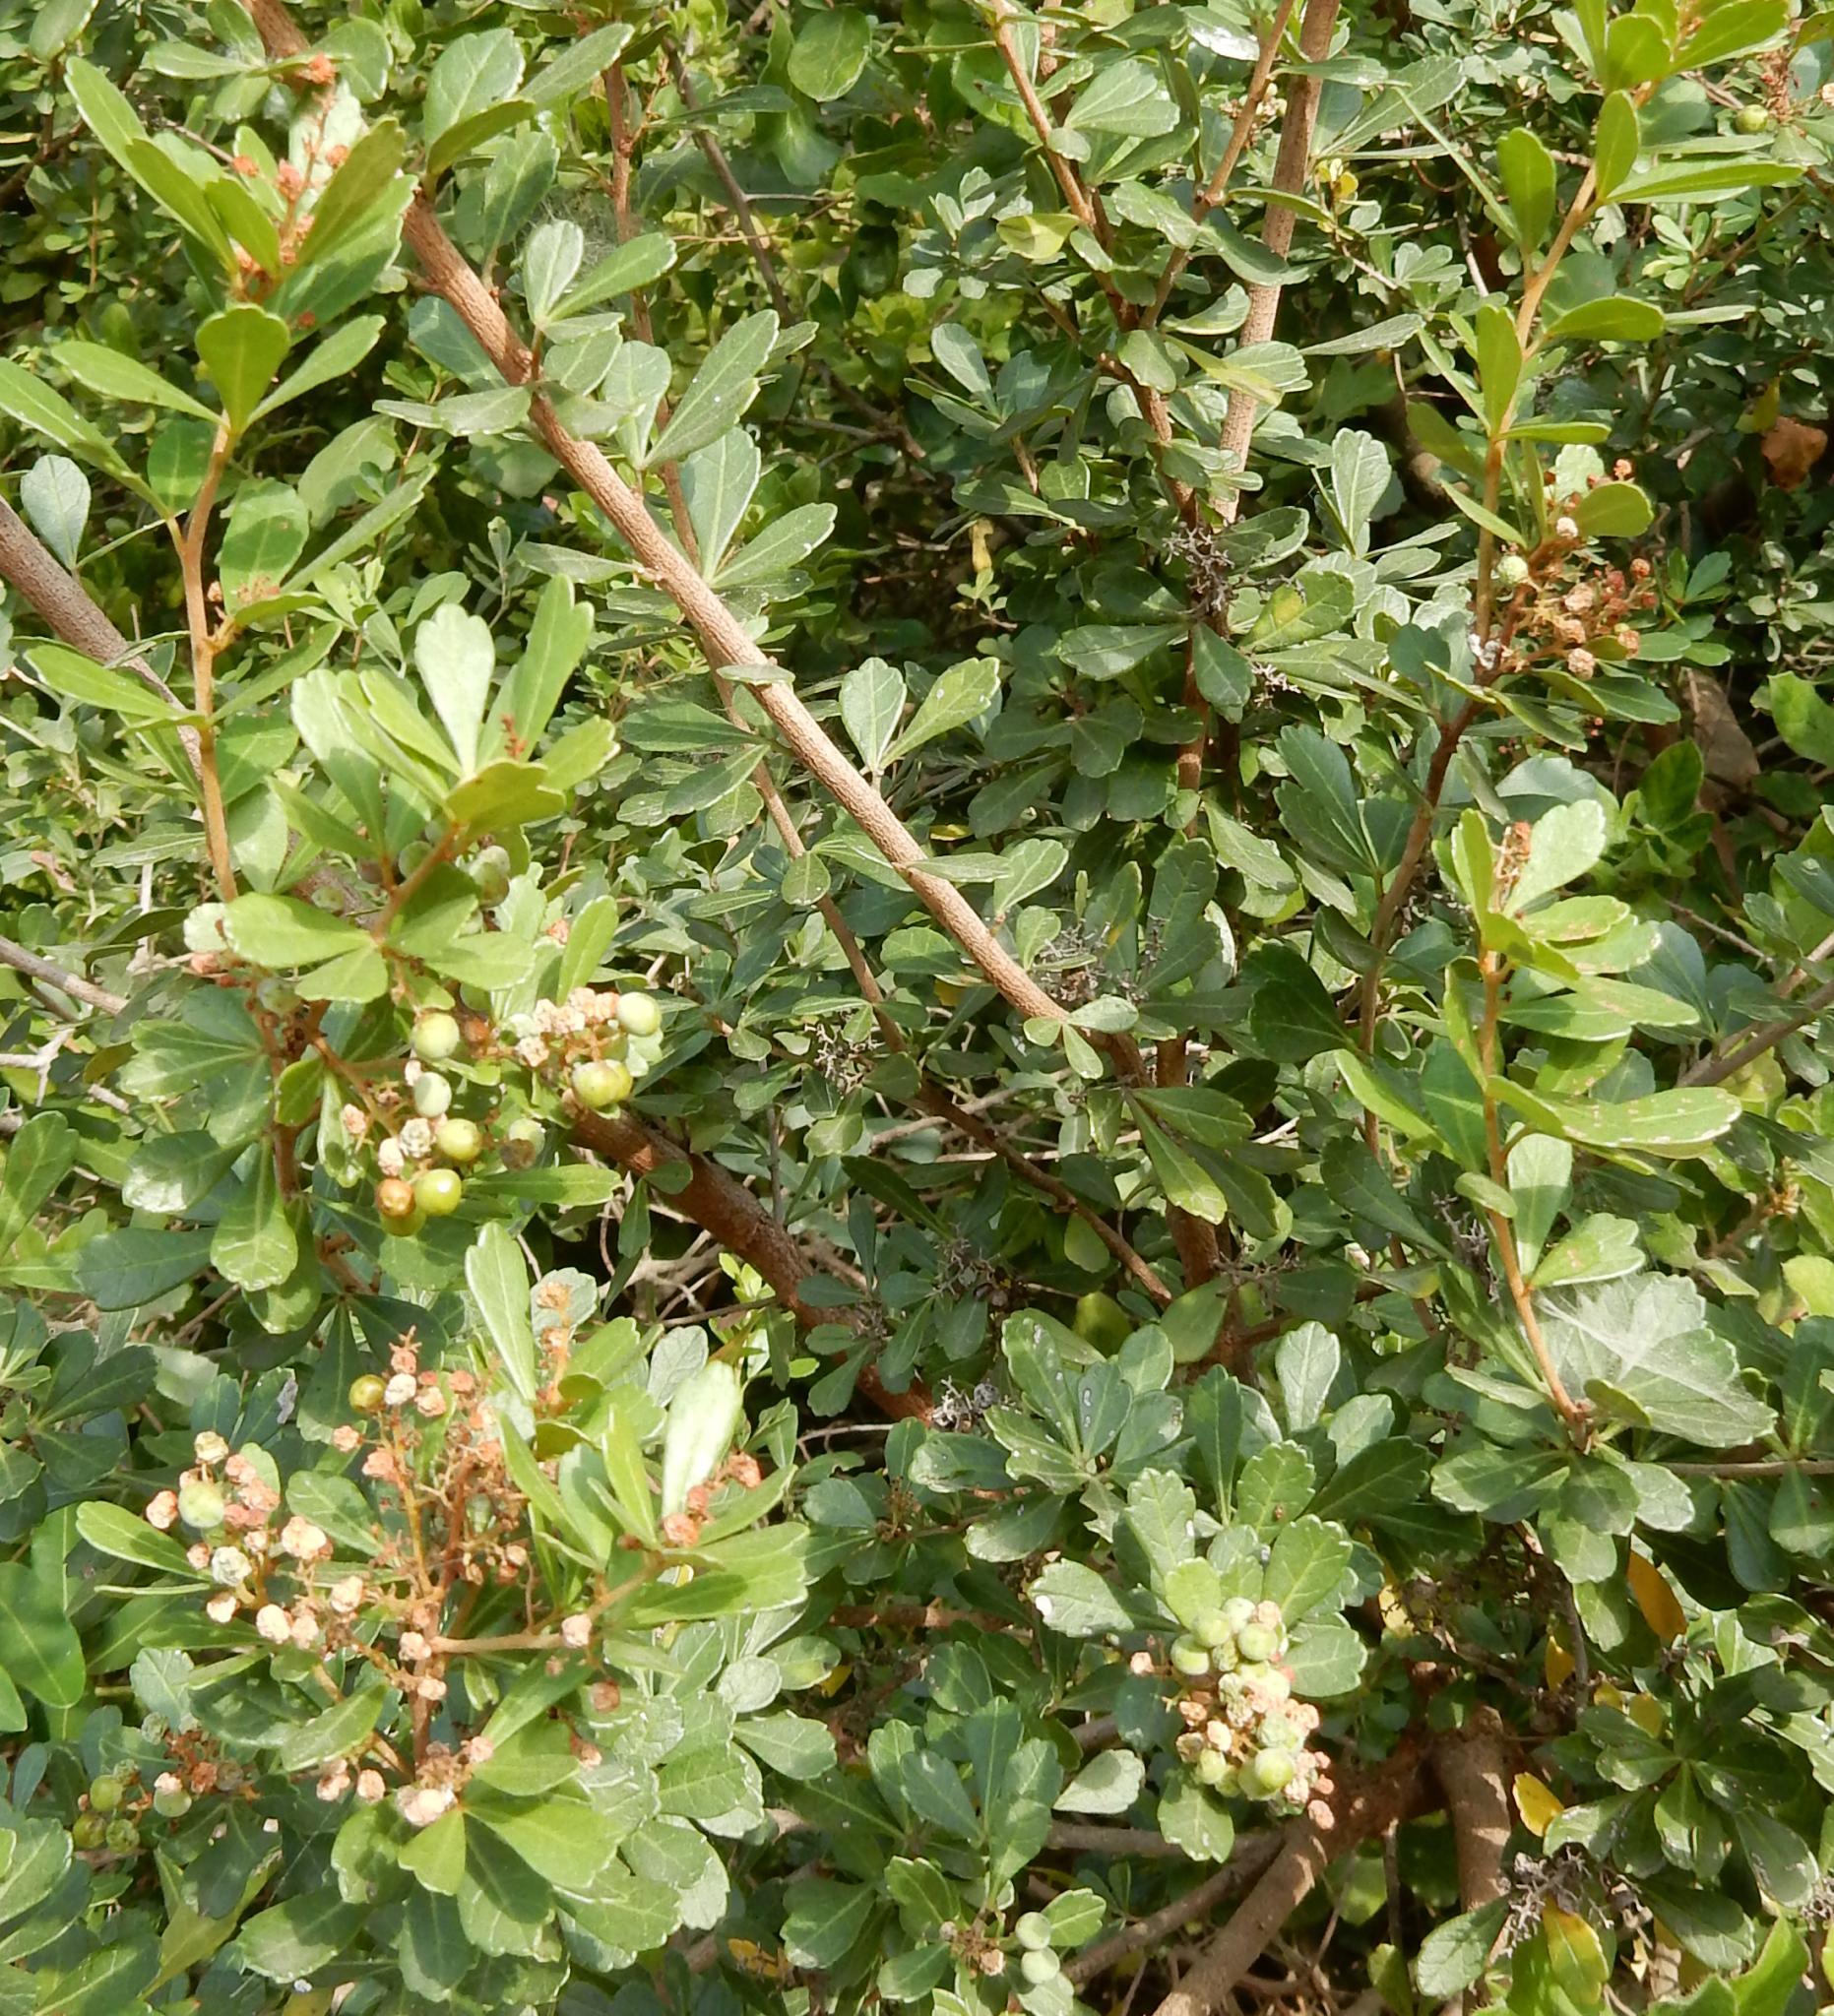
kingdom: Plantae
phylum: Tracheophyta
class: Magnoliopsida
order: Sapindales
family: Anacardiaceae
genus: Searsia
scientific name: Searsia crenata
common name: Crowberry
